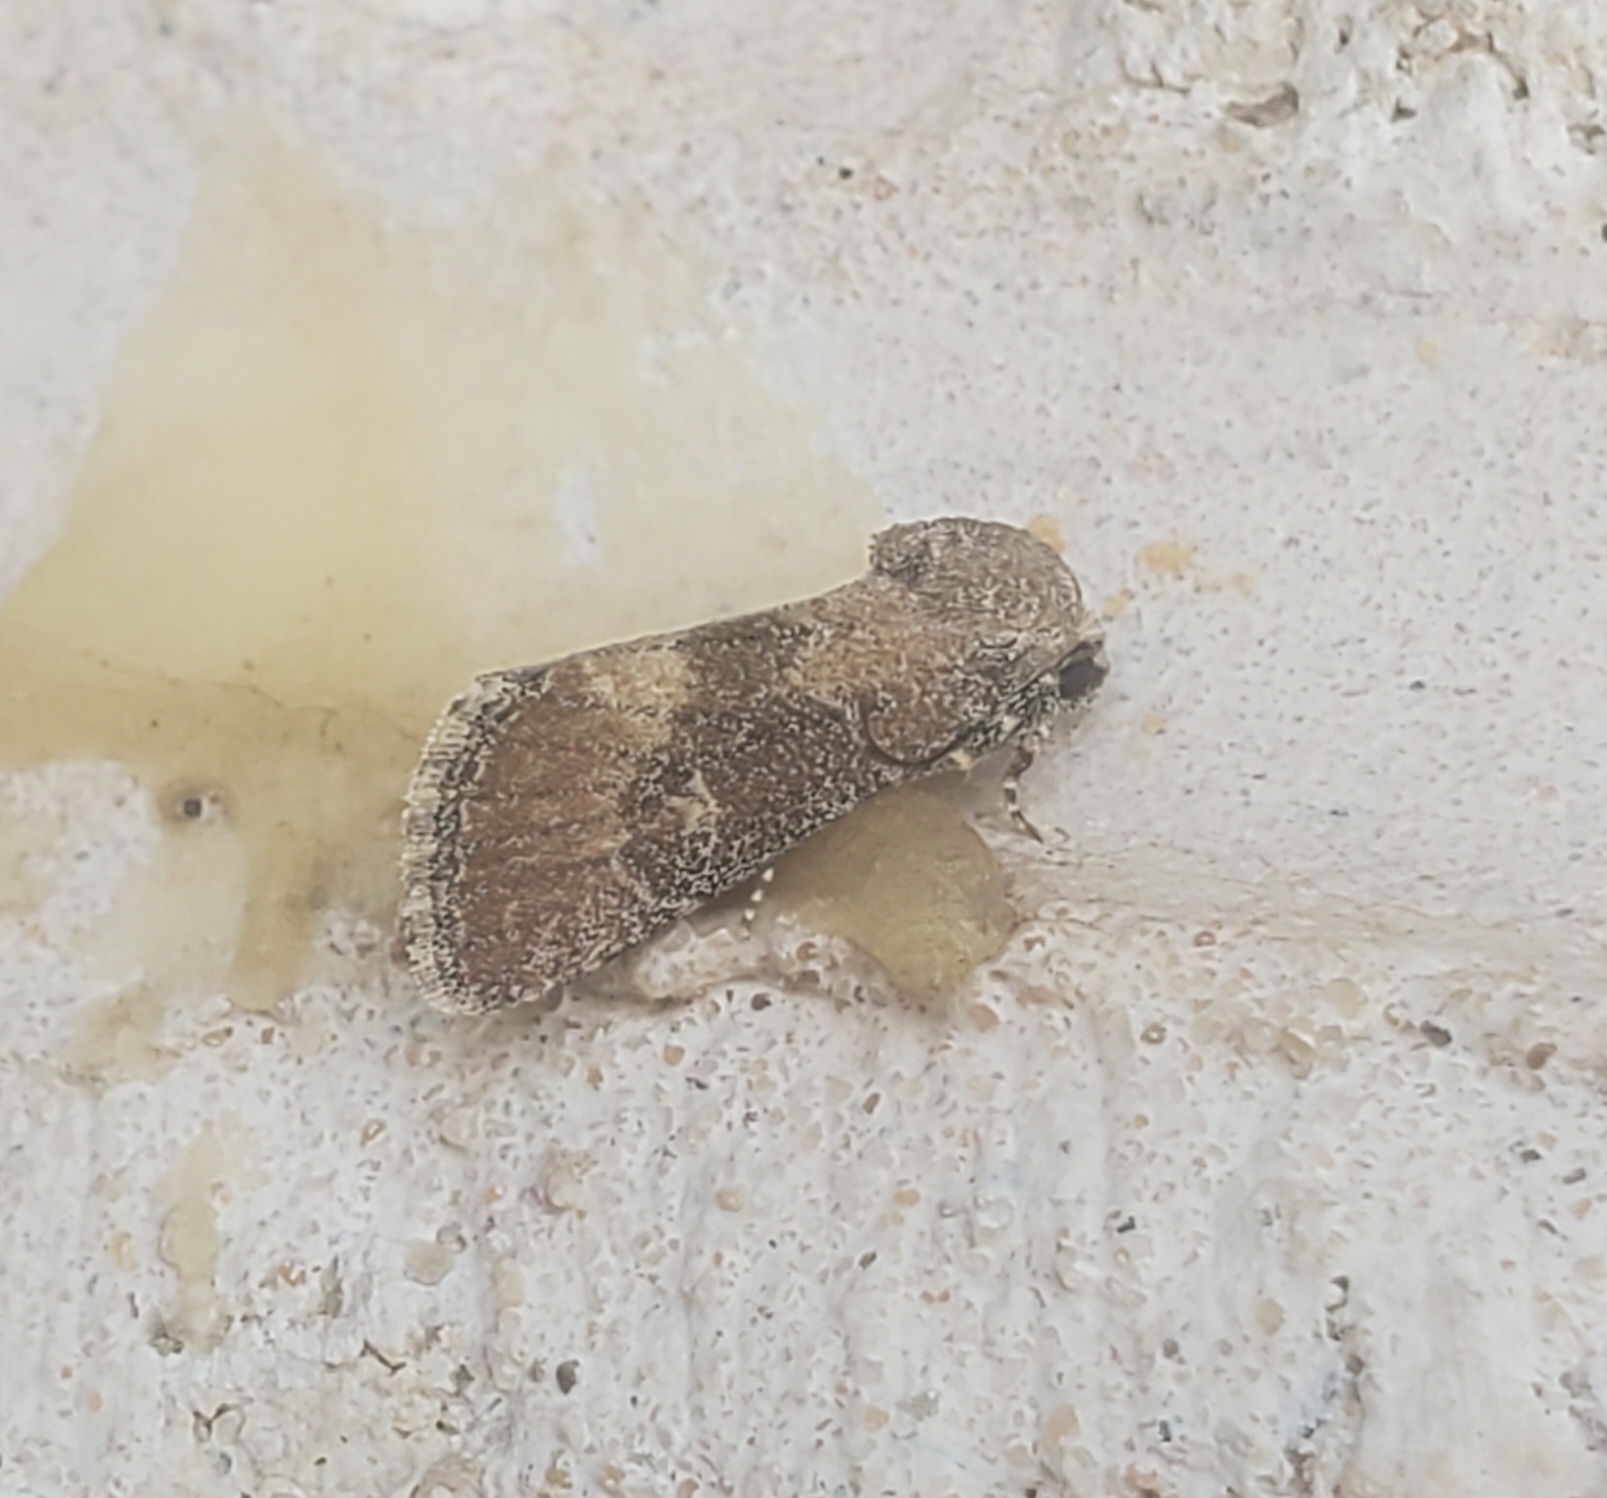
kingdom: Animalia
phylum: Arthropoda
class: Insecta
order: Lepidoptera
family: Noctuidae
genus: Plagiomimicus
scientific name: Plagiomimicus navia
